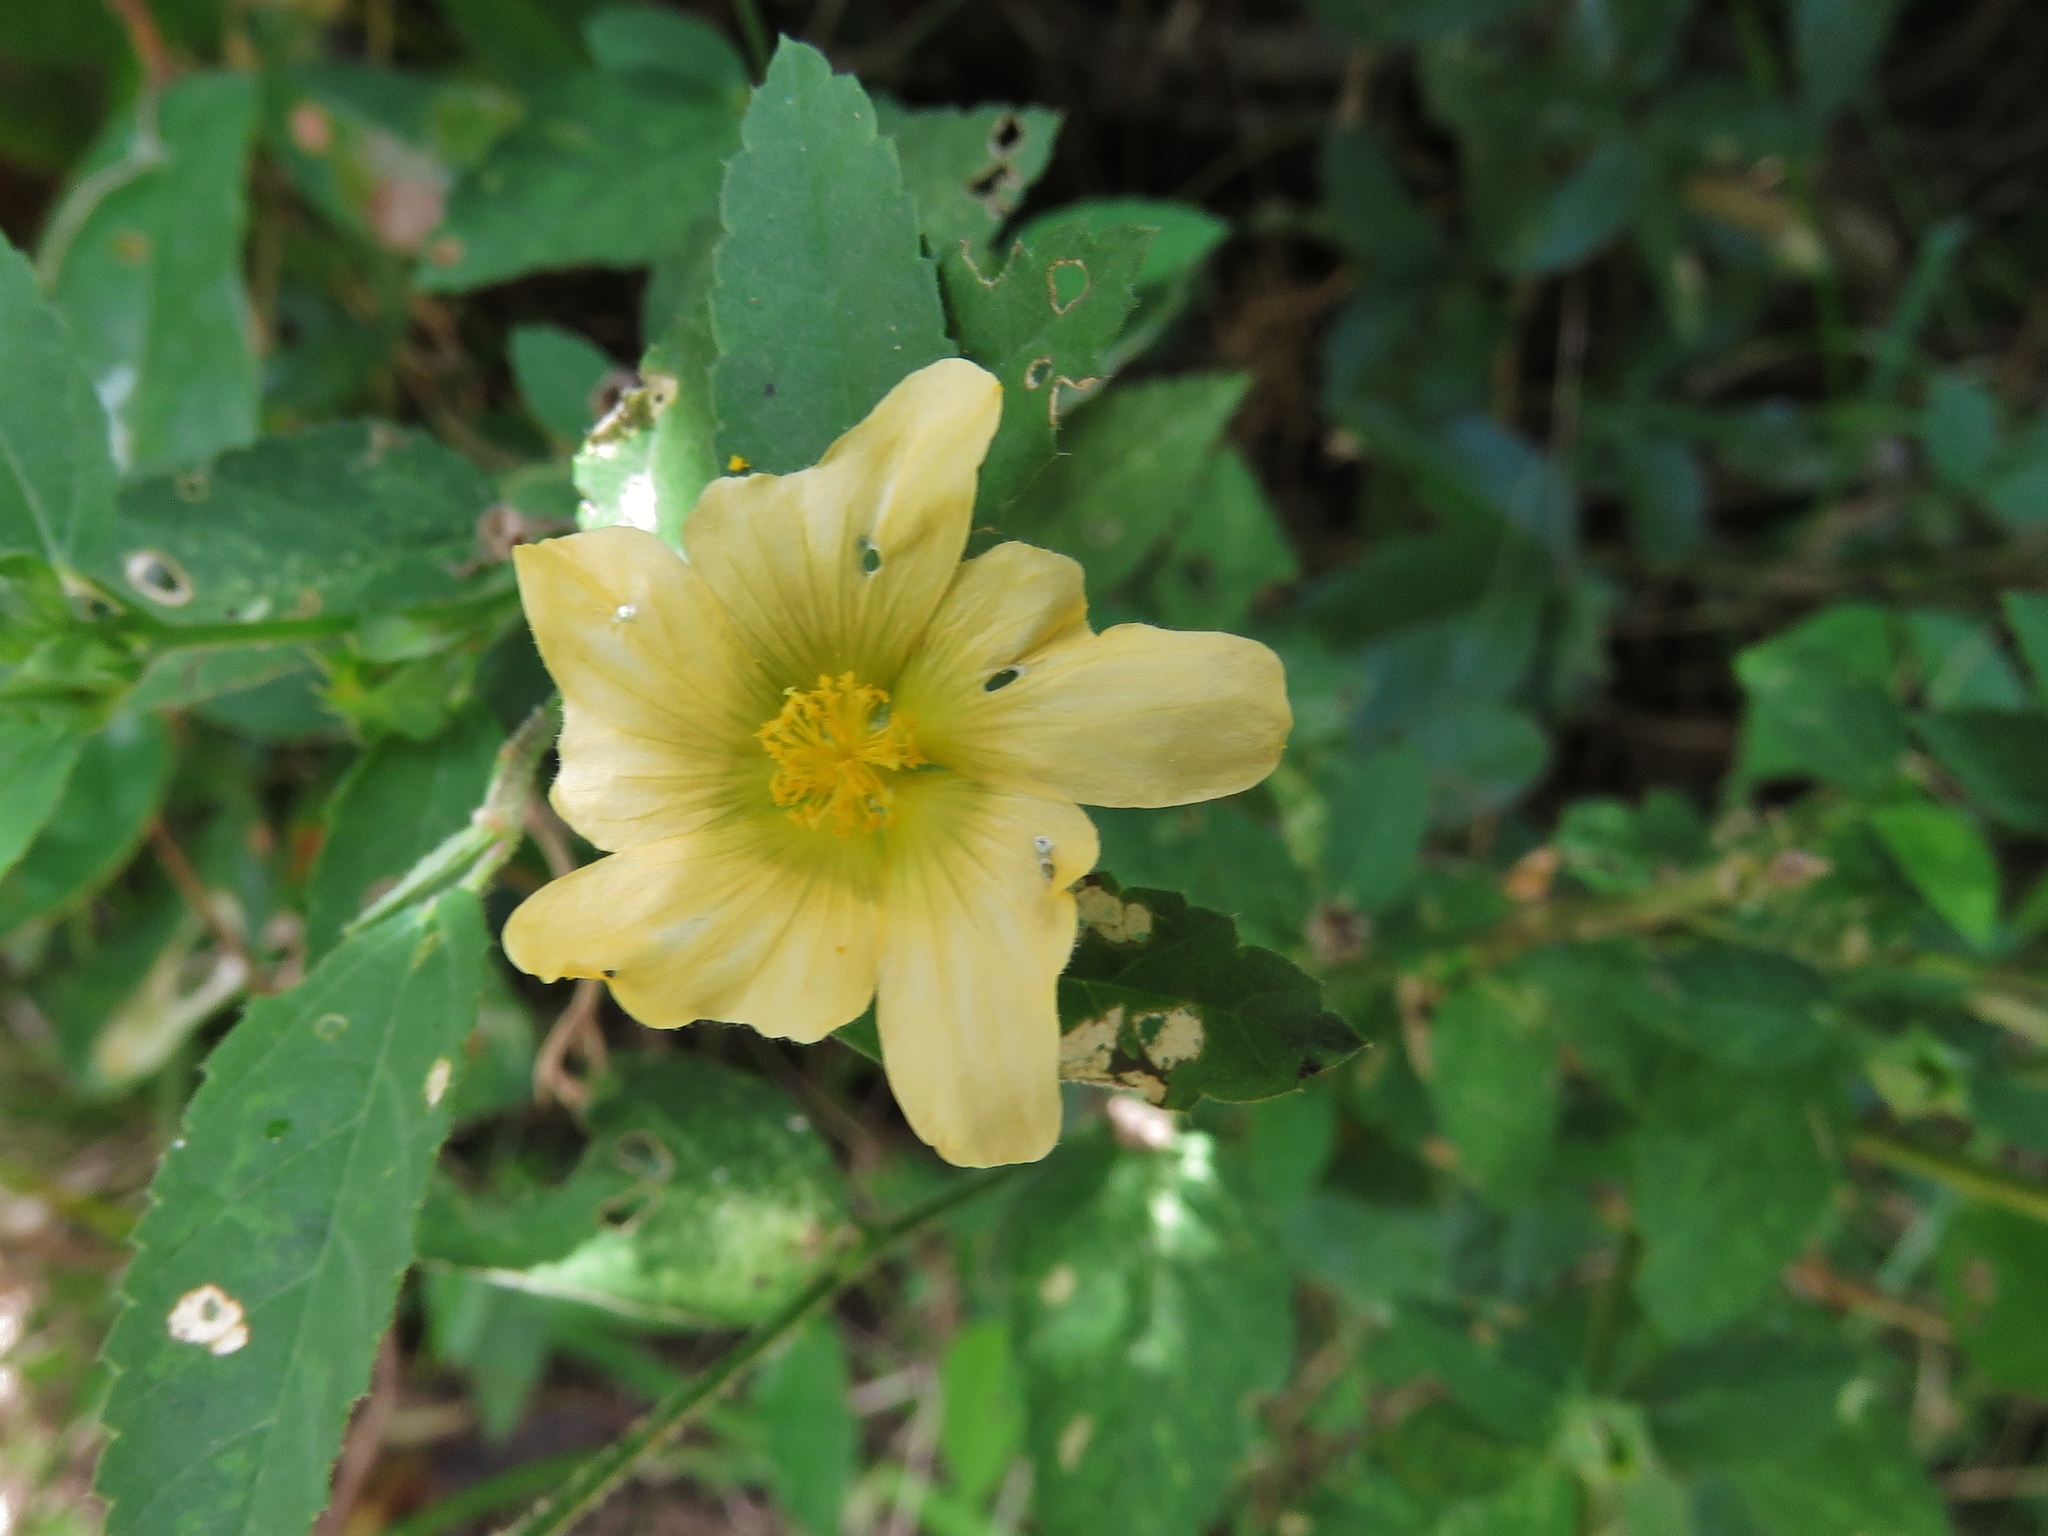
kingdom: Plantae
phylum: Tracheophyta
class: Magnoliopsida
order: Malvales
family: Malvaceae
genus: Sida
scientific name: Sida acuta
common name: Common wireweed
